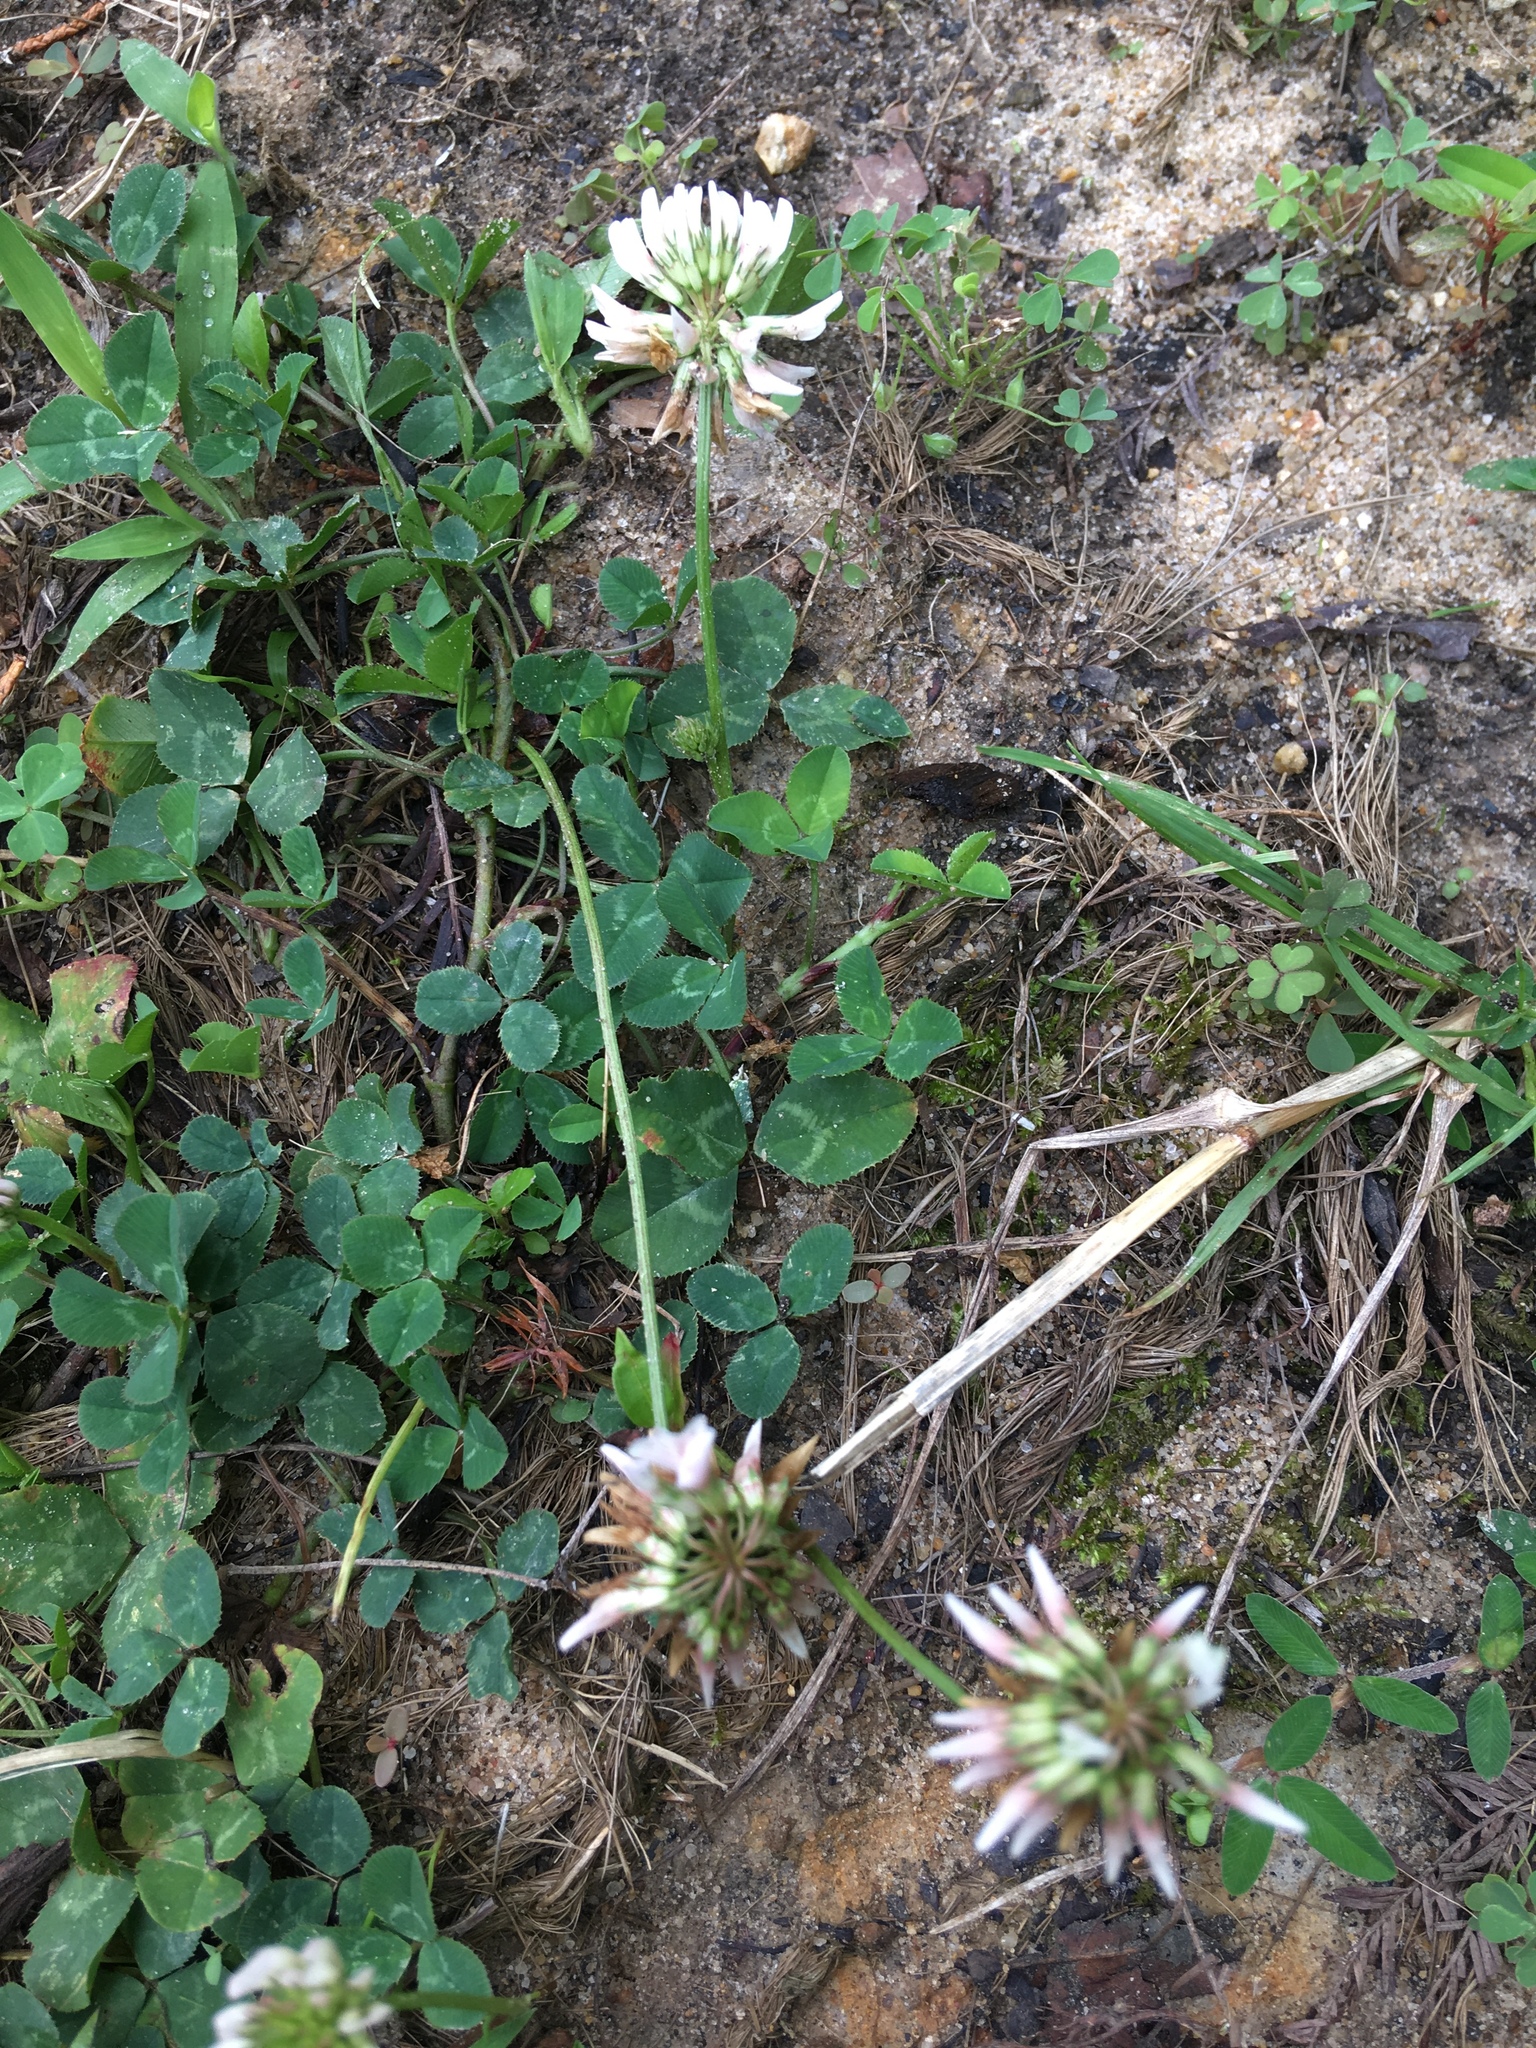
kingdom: Plantae
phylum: Tracheophyta
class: Magnoliopsida
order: Fabales
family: Fabaceae
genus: Trifolium
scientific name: Trifolium repens
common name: White clover
